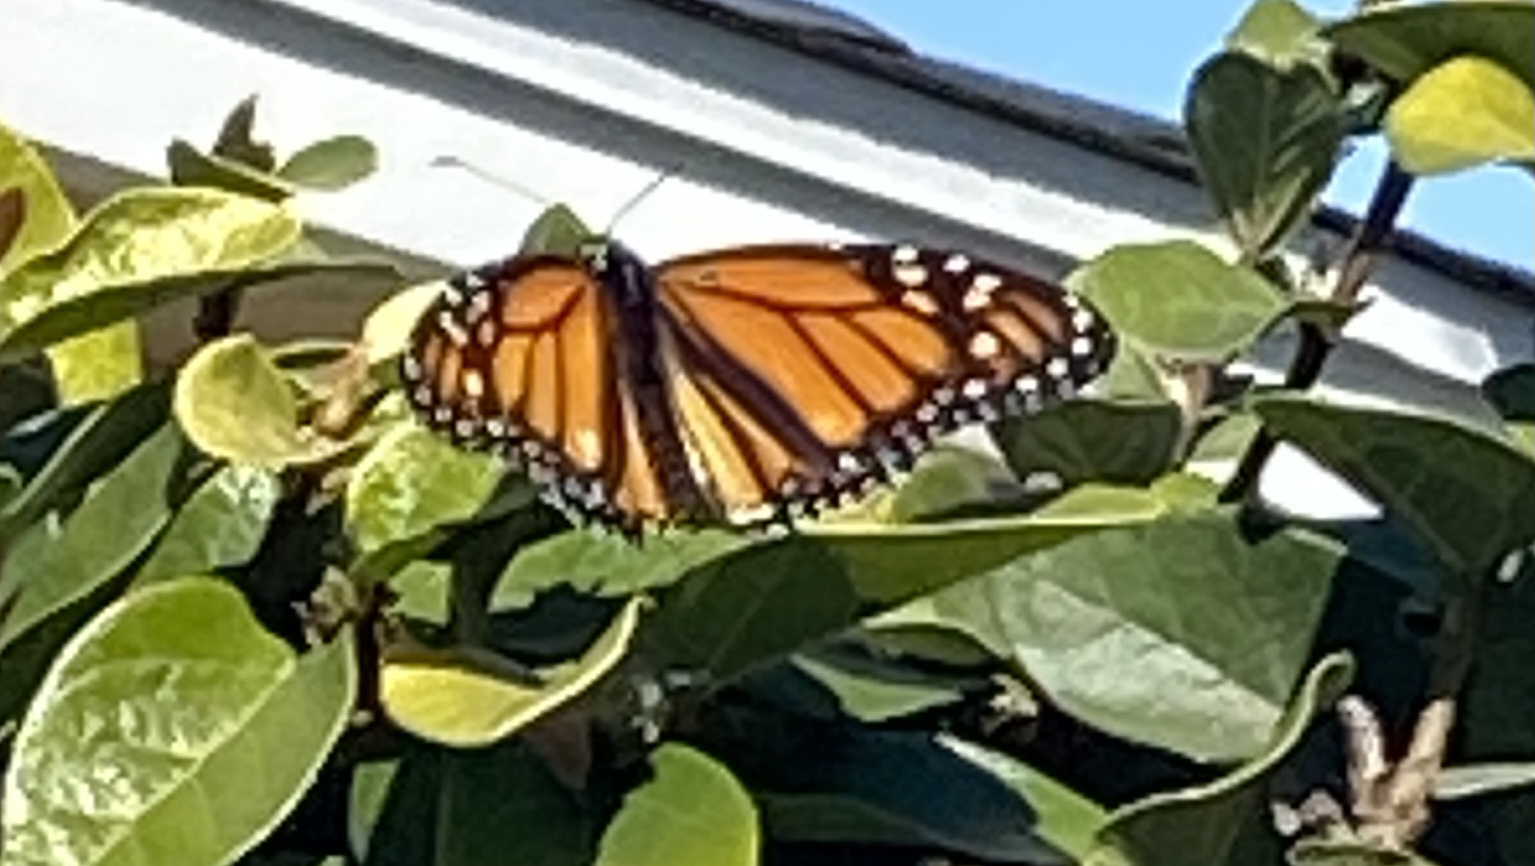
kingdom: Animalia
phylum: Arthropoda
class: Insecta
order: Lepidoptera
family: Nymphalidae
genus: Danaus
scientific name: Danaus plexippus
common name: Monarch
